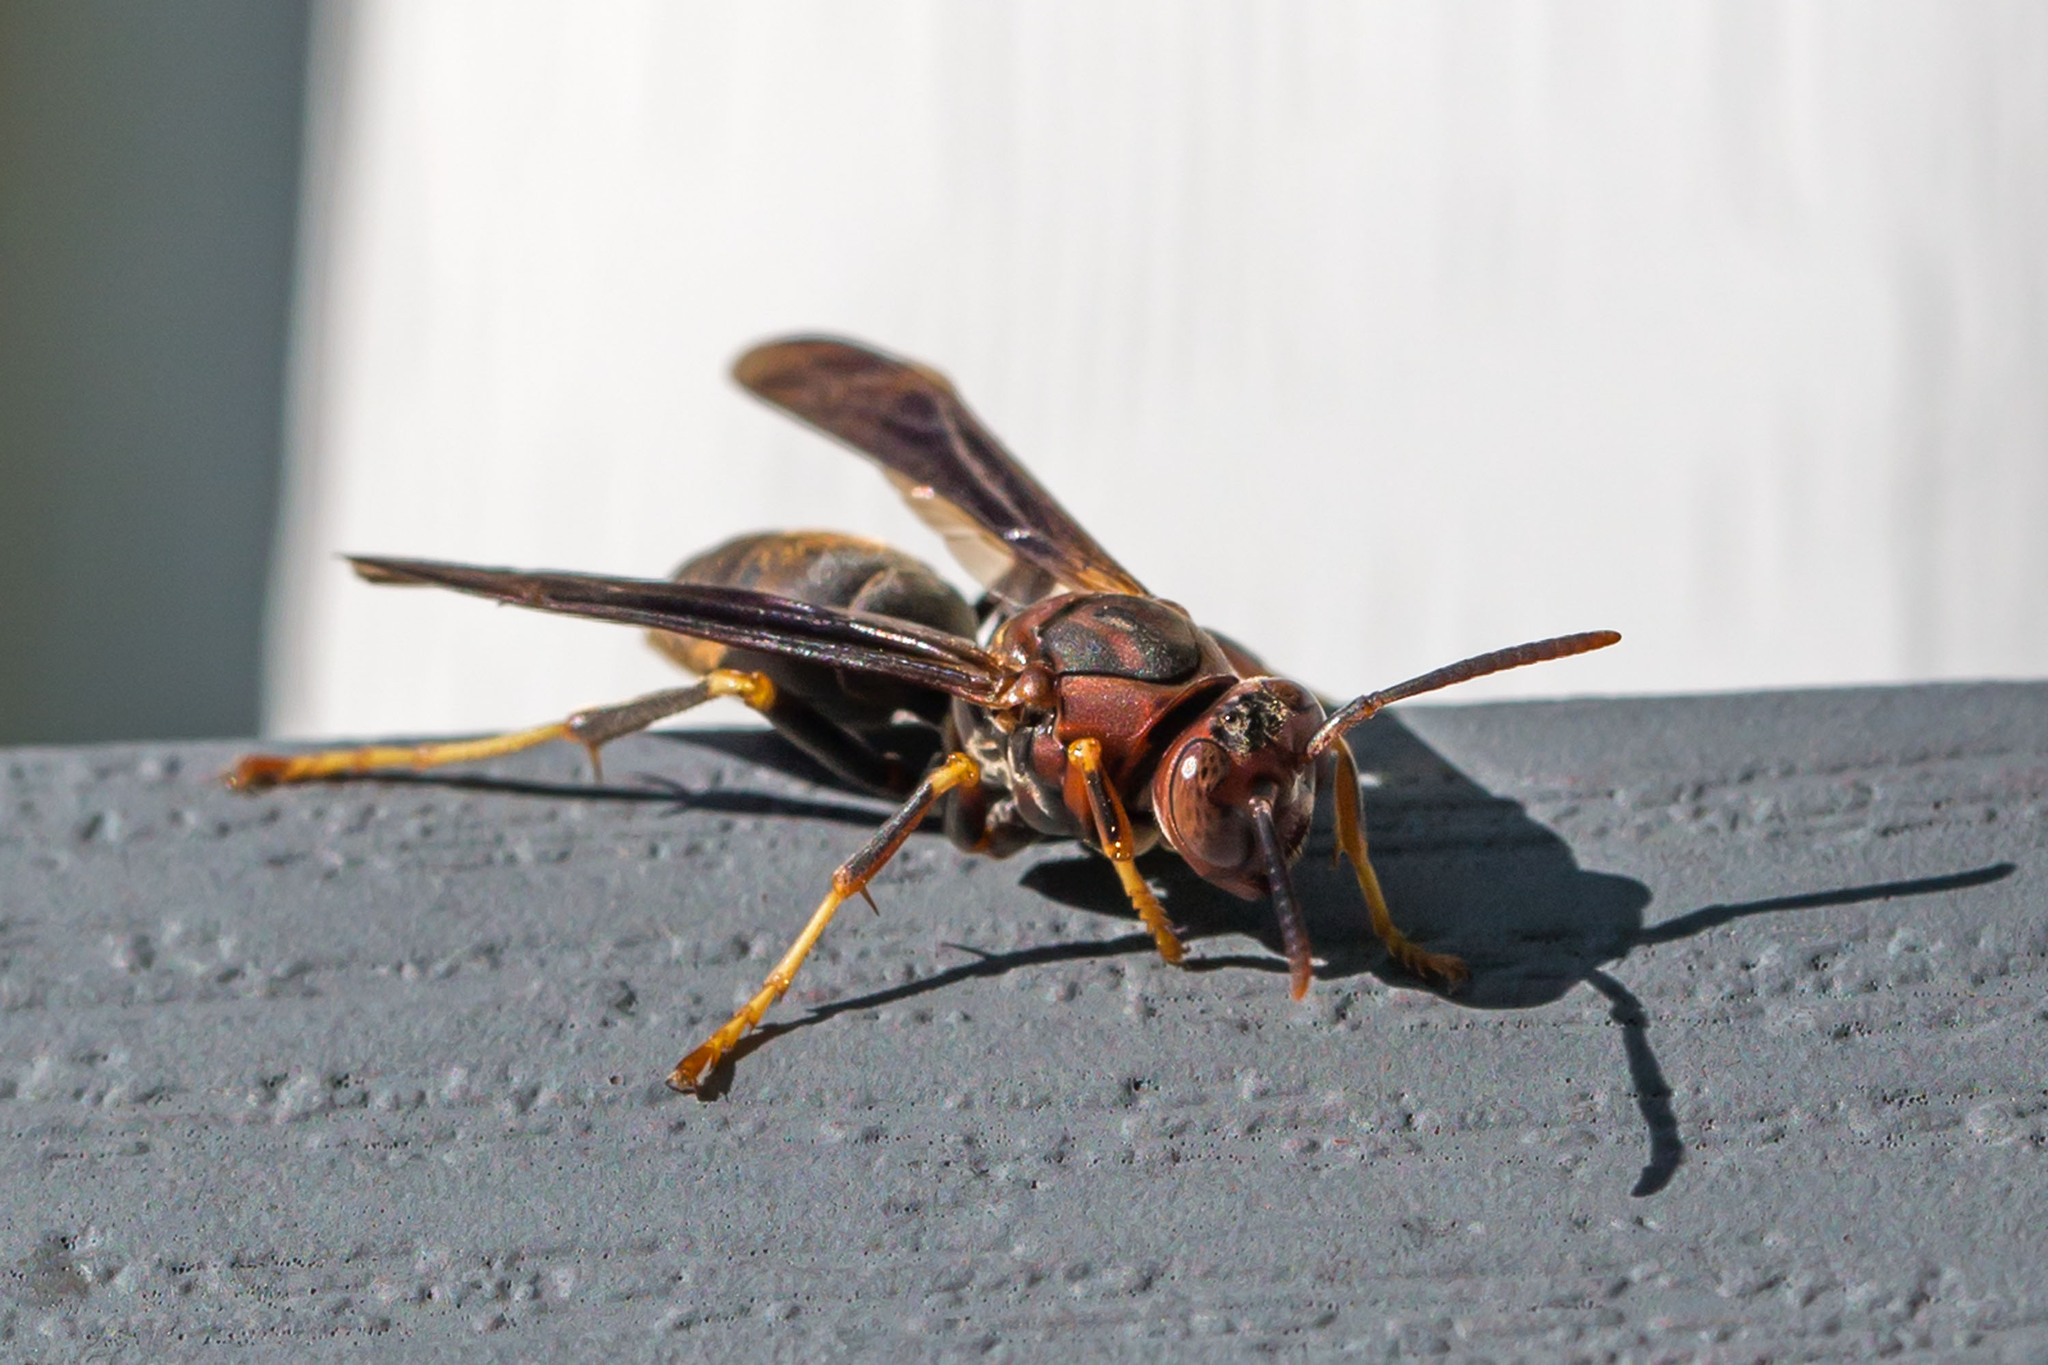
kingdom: Animalia
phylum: Arthropoda
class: Insecta
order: Hymenoptera
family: Eumenidae
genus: Polistes
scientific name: Polistes metricus
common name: Metric paper wasp
